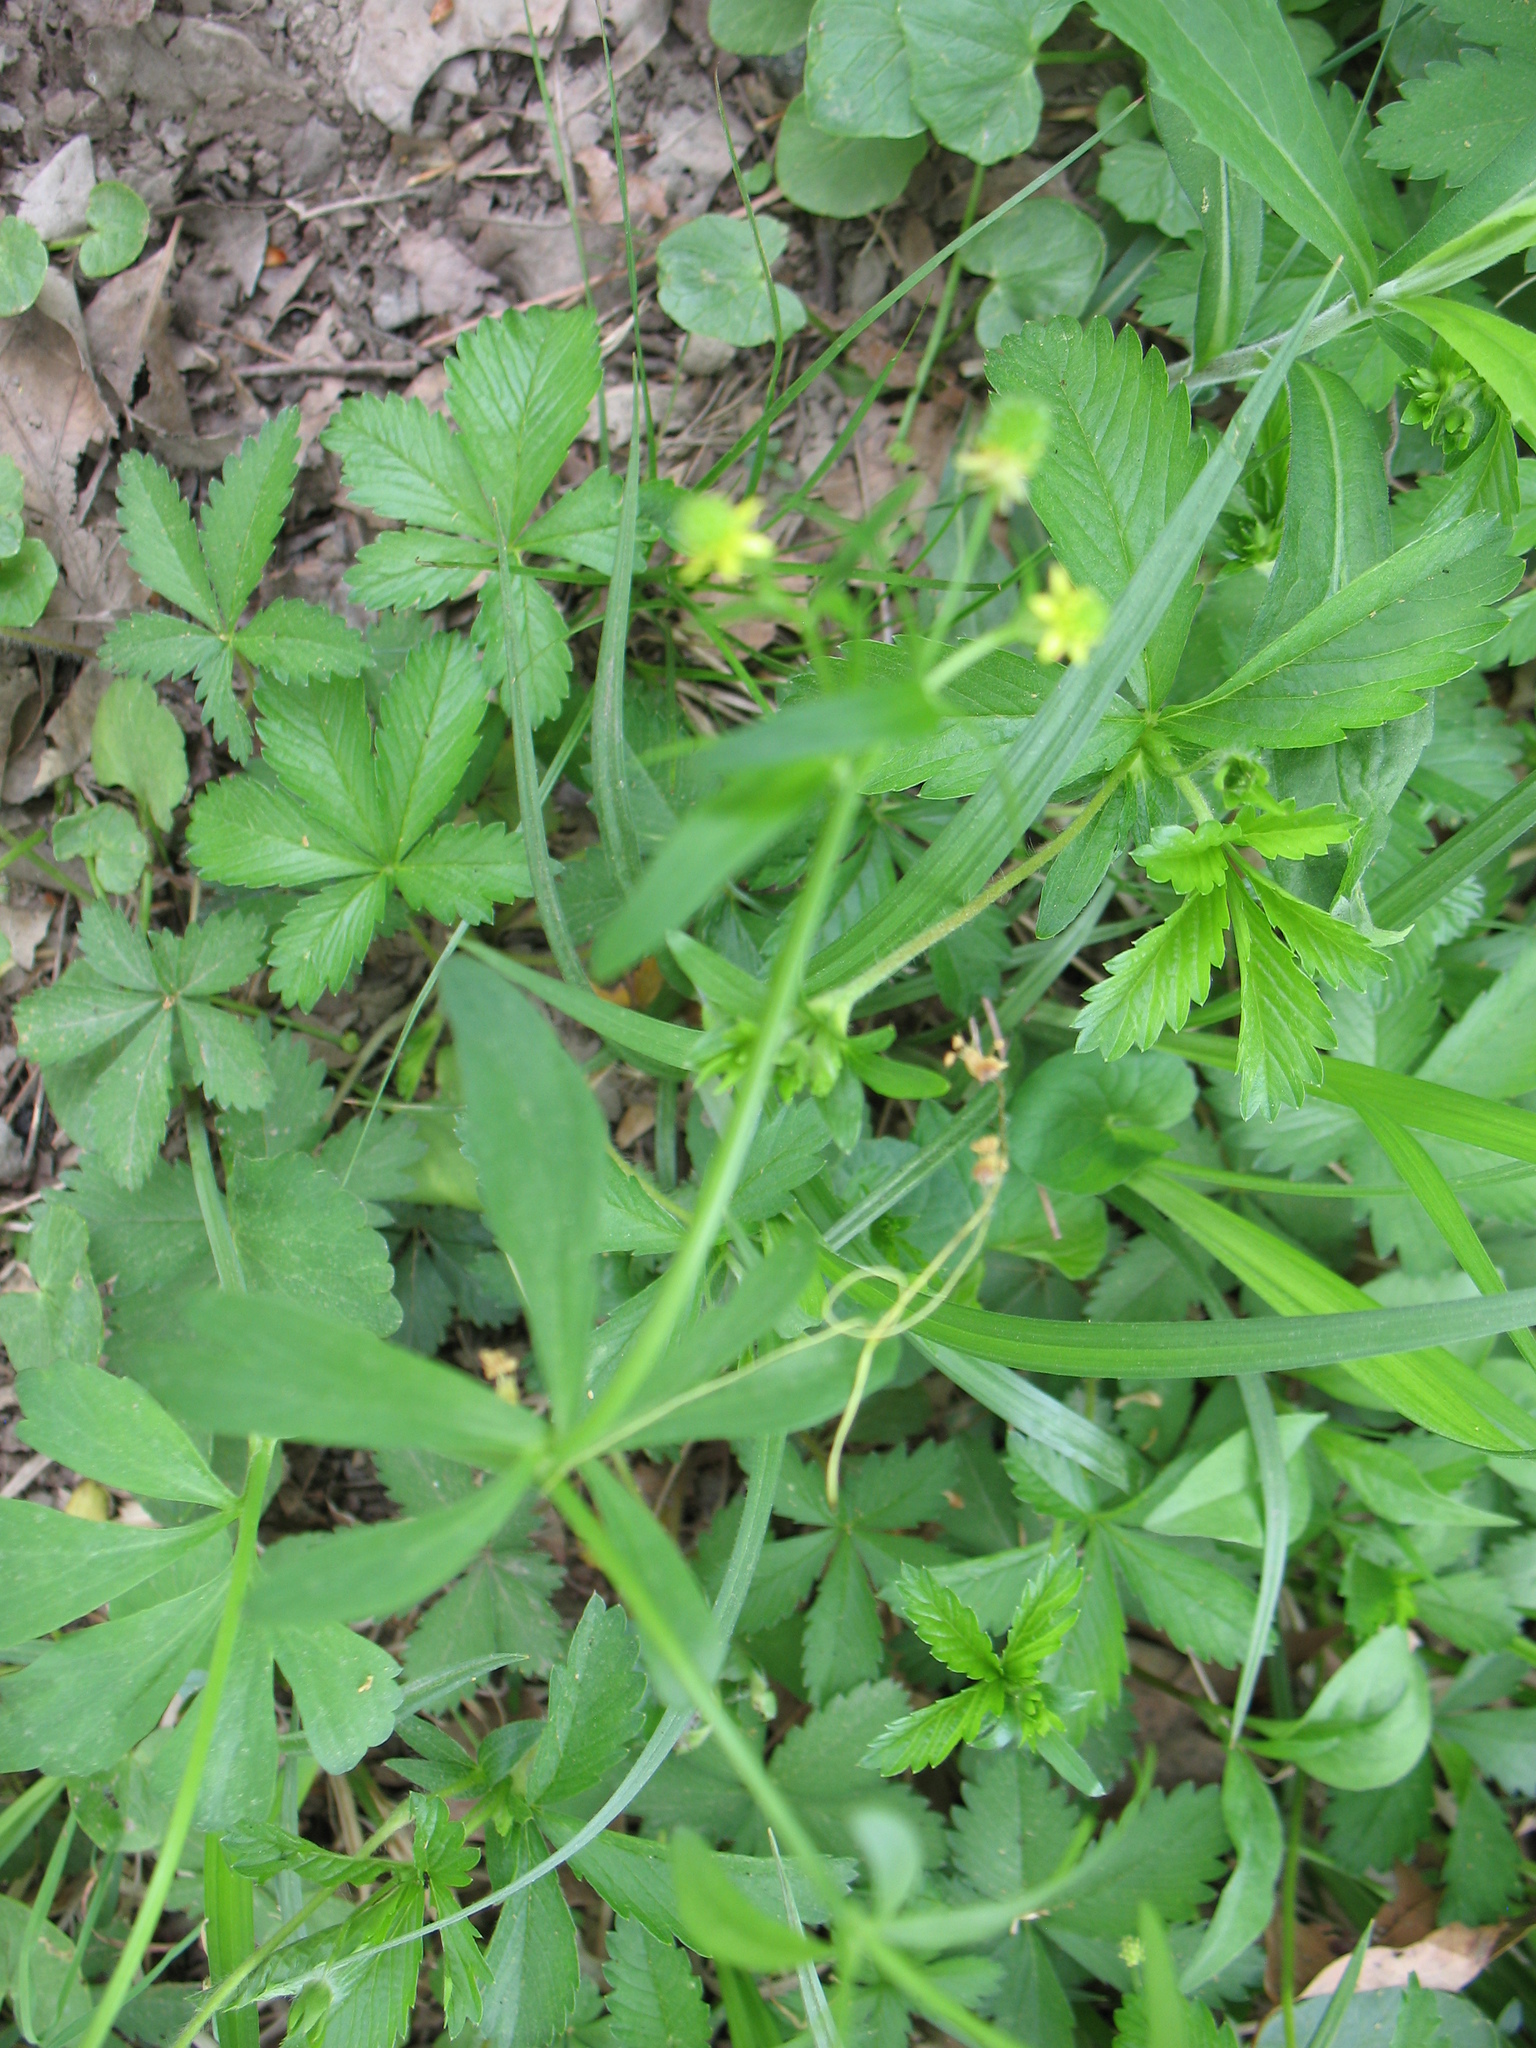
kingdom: Plantae
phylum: Tracheophyta
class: Magnoliopsida
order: Ranunculales
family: Ranunculaceae
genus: Ranunculus
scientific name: Ranunculus abortivus
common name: Early wood buttercup
